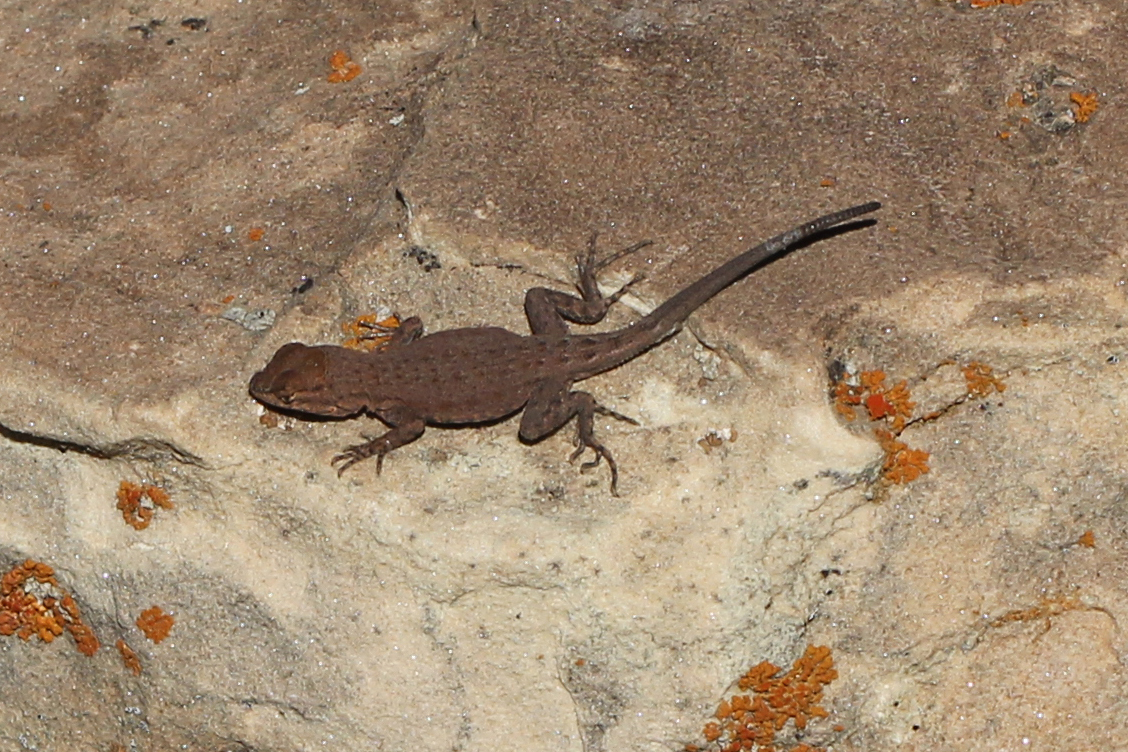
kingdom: Animalia
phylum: Chordata
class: Squamata
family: Phrynosomatidae
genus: Uta
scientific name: Uta stansburiana
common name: Side-blotched lizard
